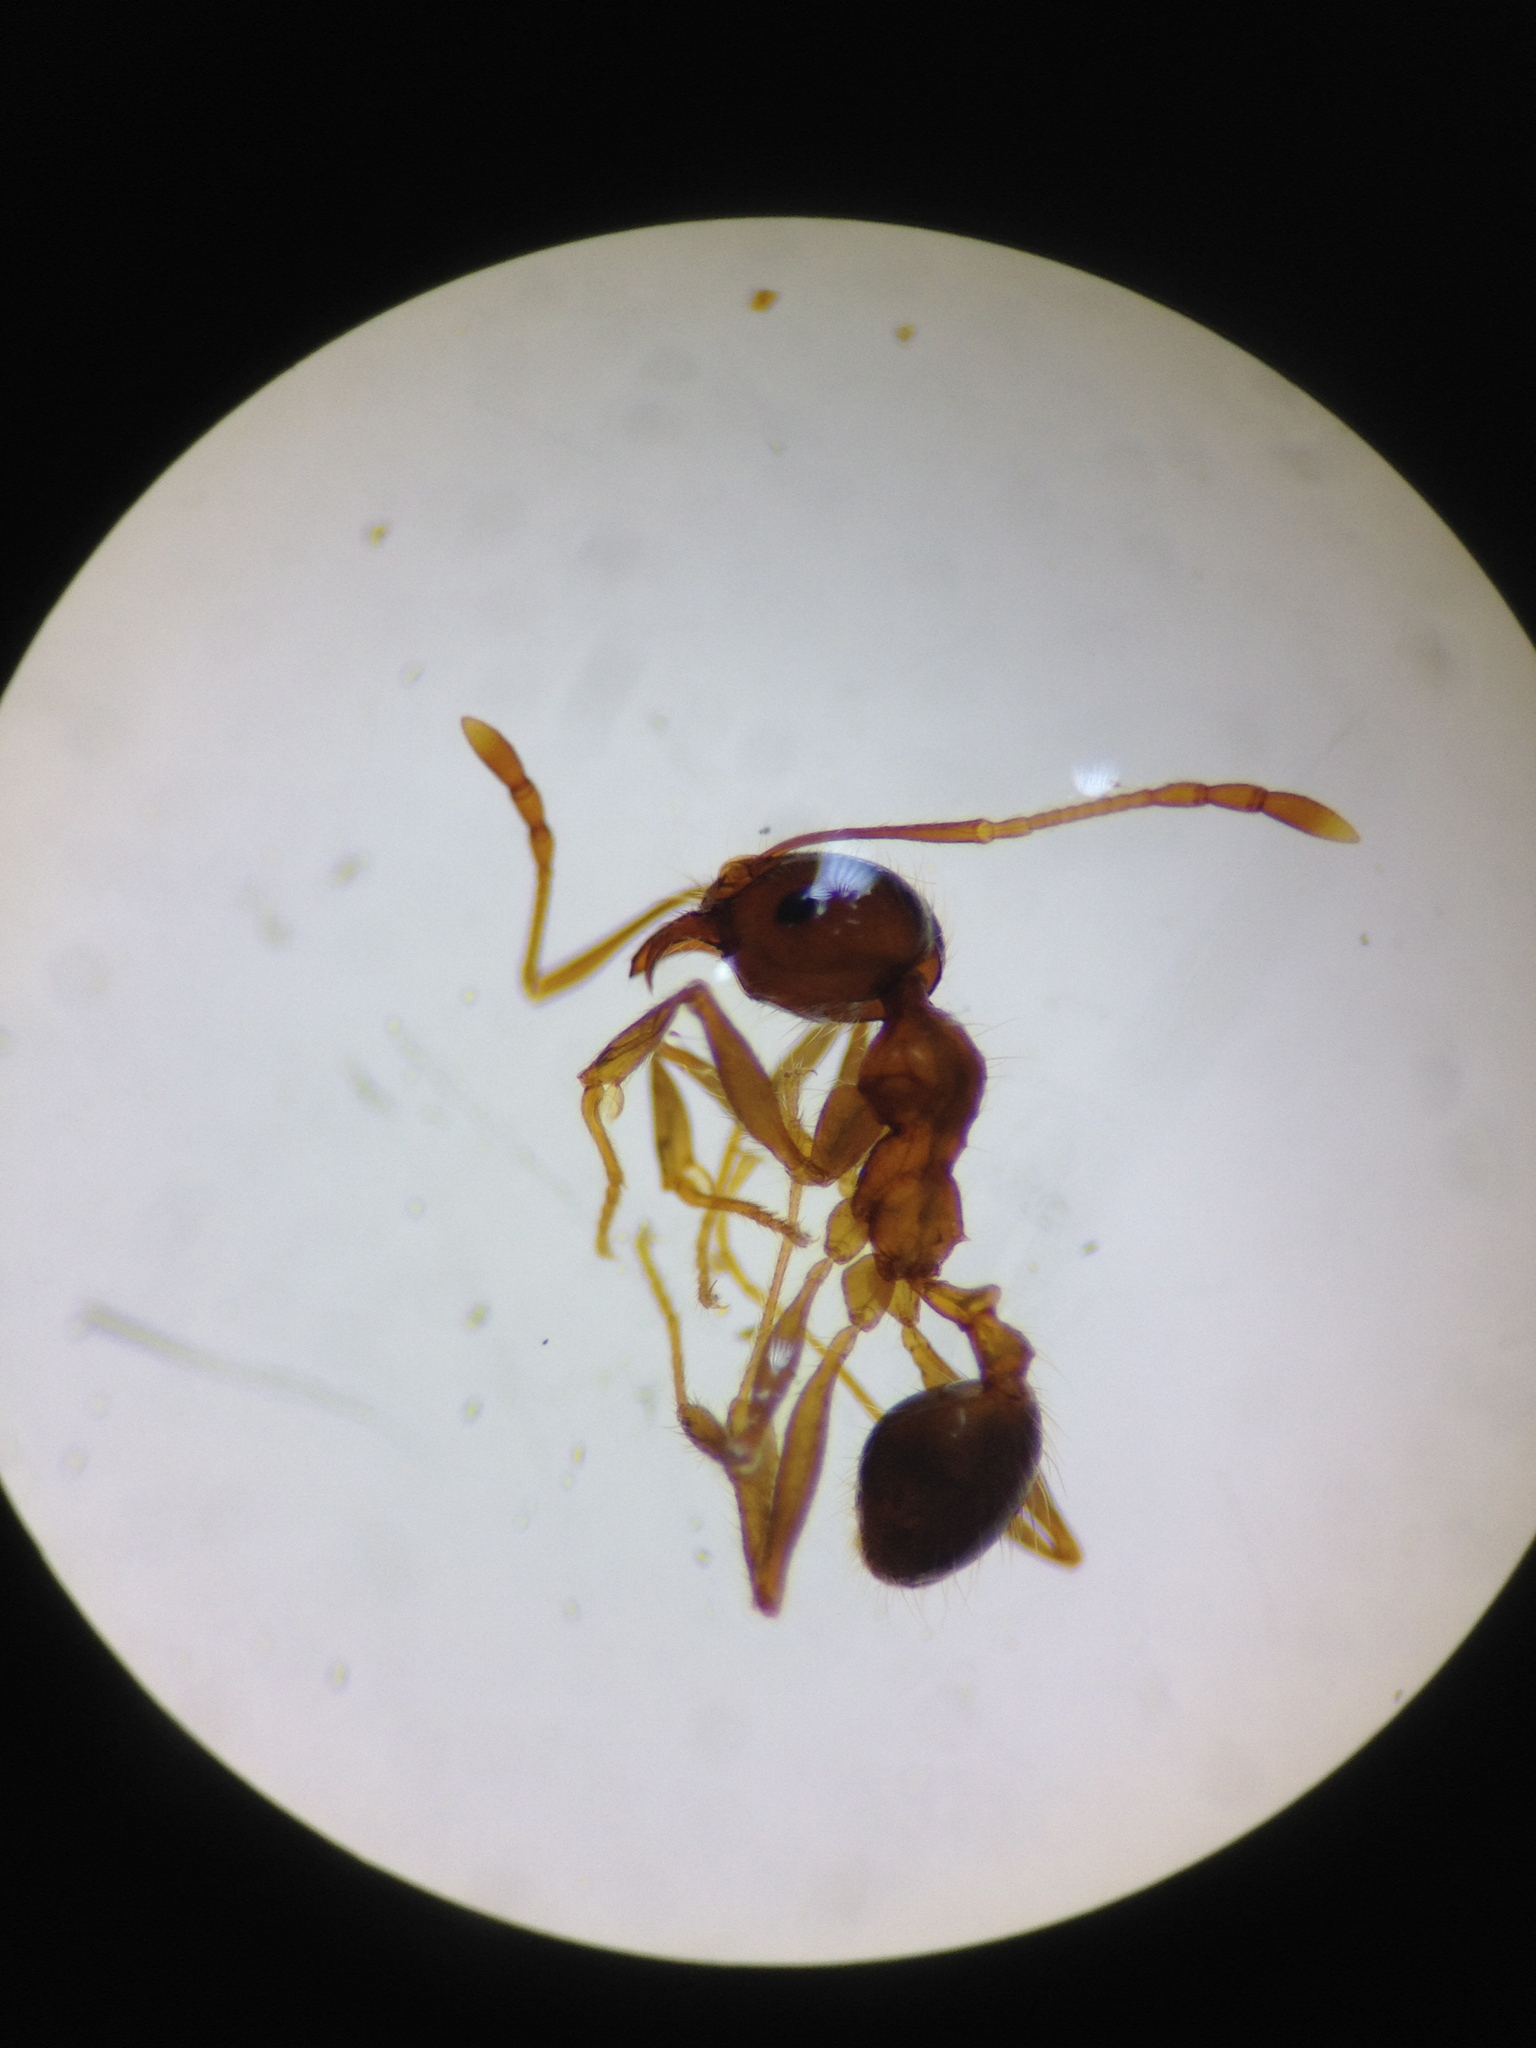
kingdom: Animalia
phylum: Arthropoda
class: Insecta
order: Hymenoptera
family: Formicidae
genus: Pheidole
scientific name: Pheidole pallidula
